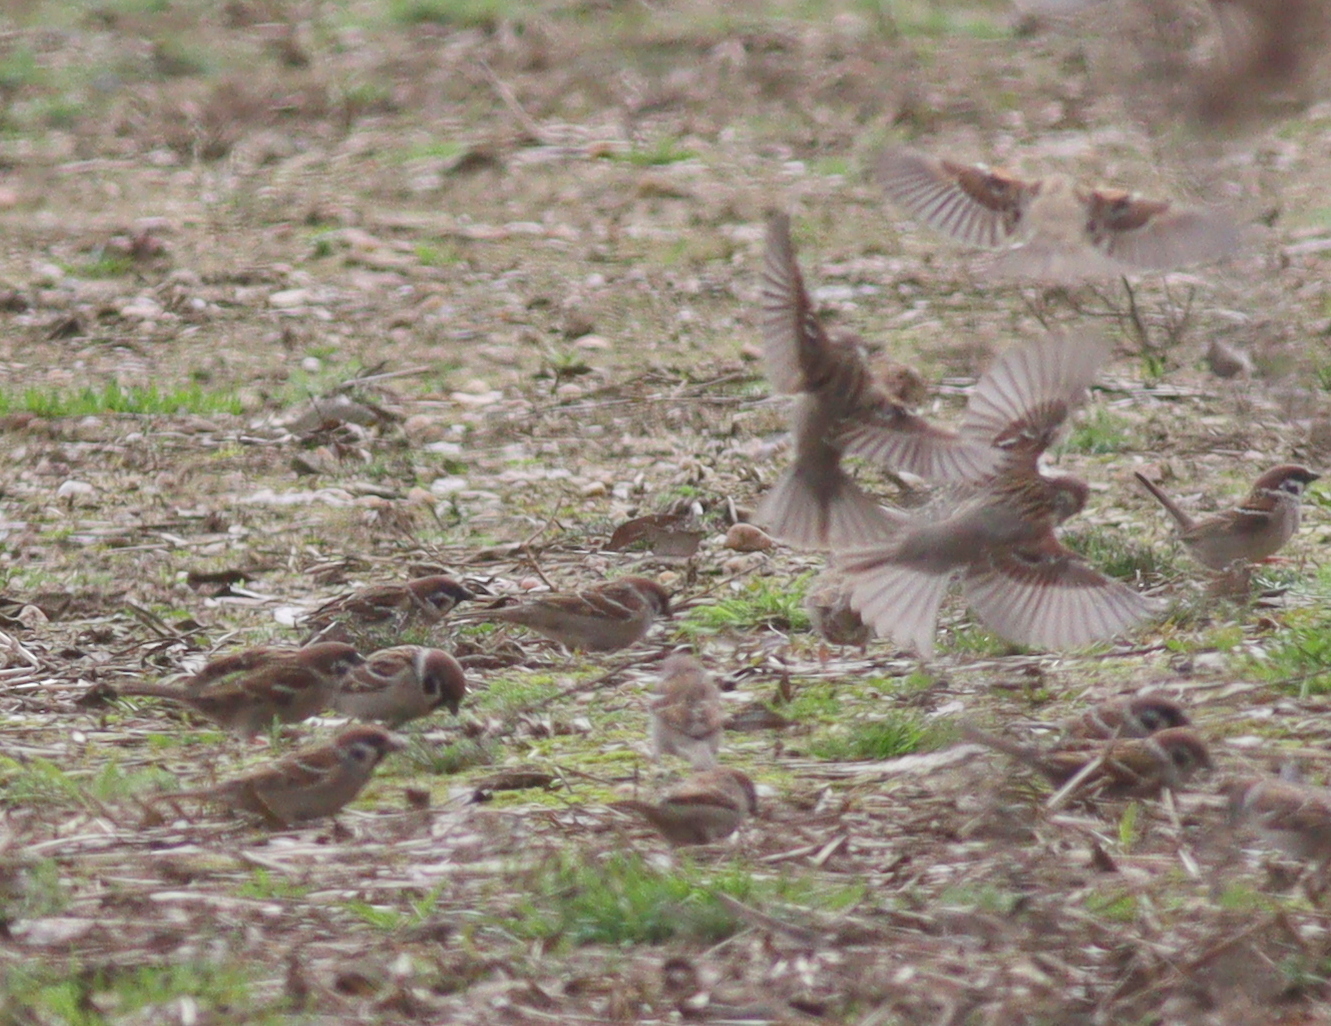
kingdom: Animalia
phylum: Chordata
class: Aves
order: Passeriformes
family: Passeridae
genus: Passer
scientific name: Passer montanus
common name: Eurasian tree sparrow
